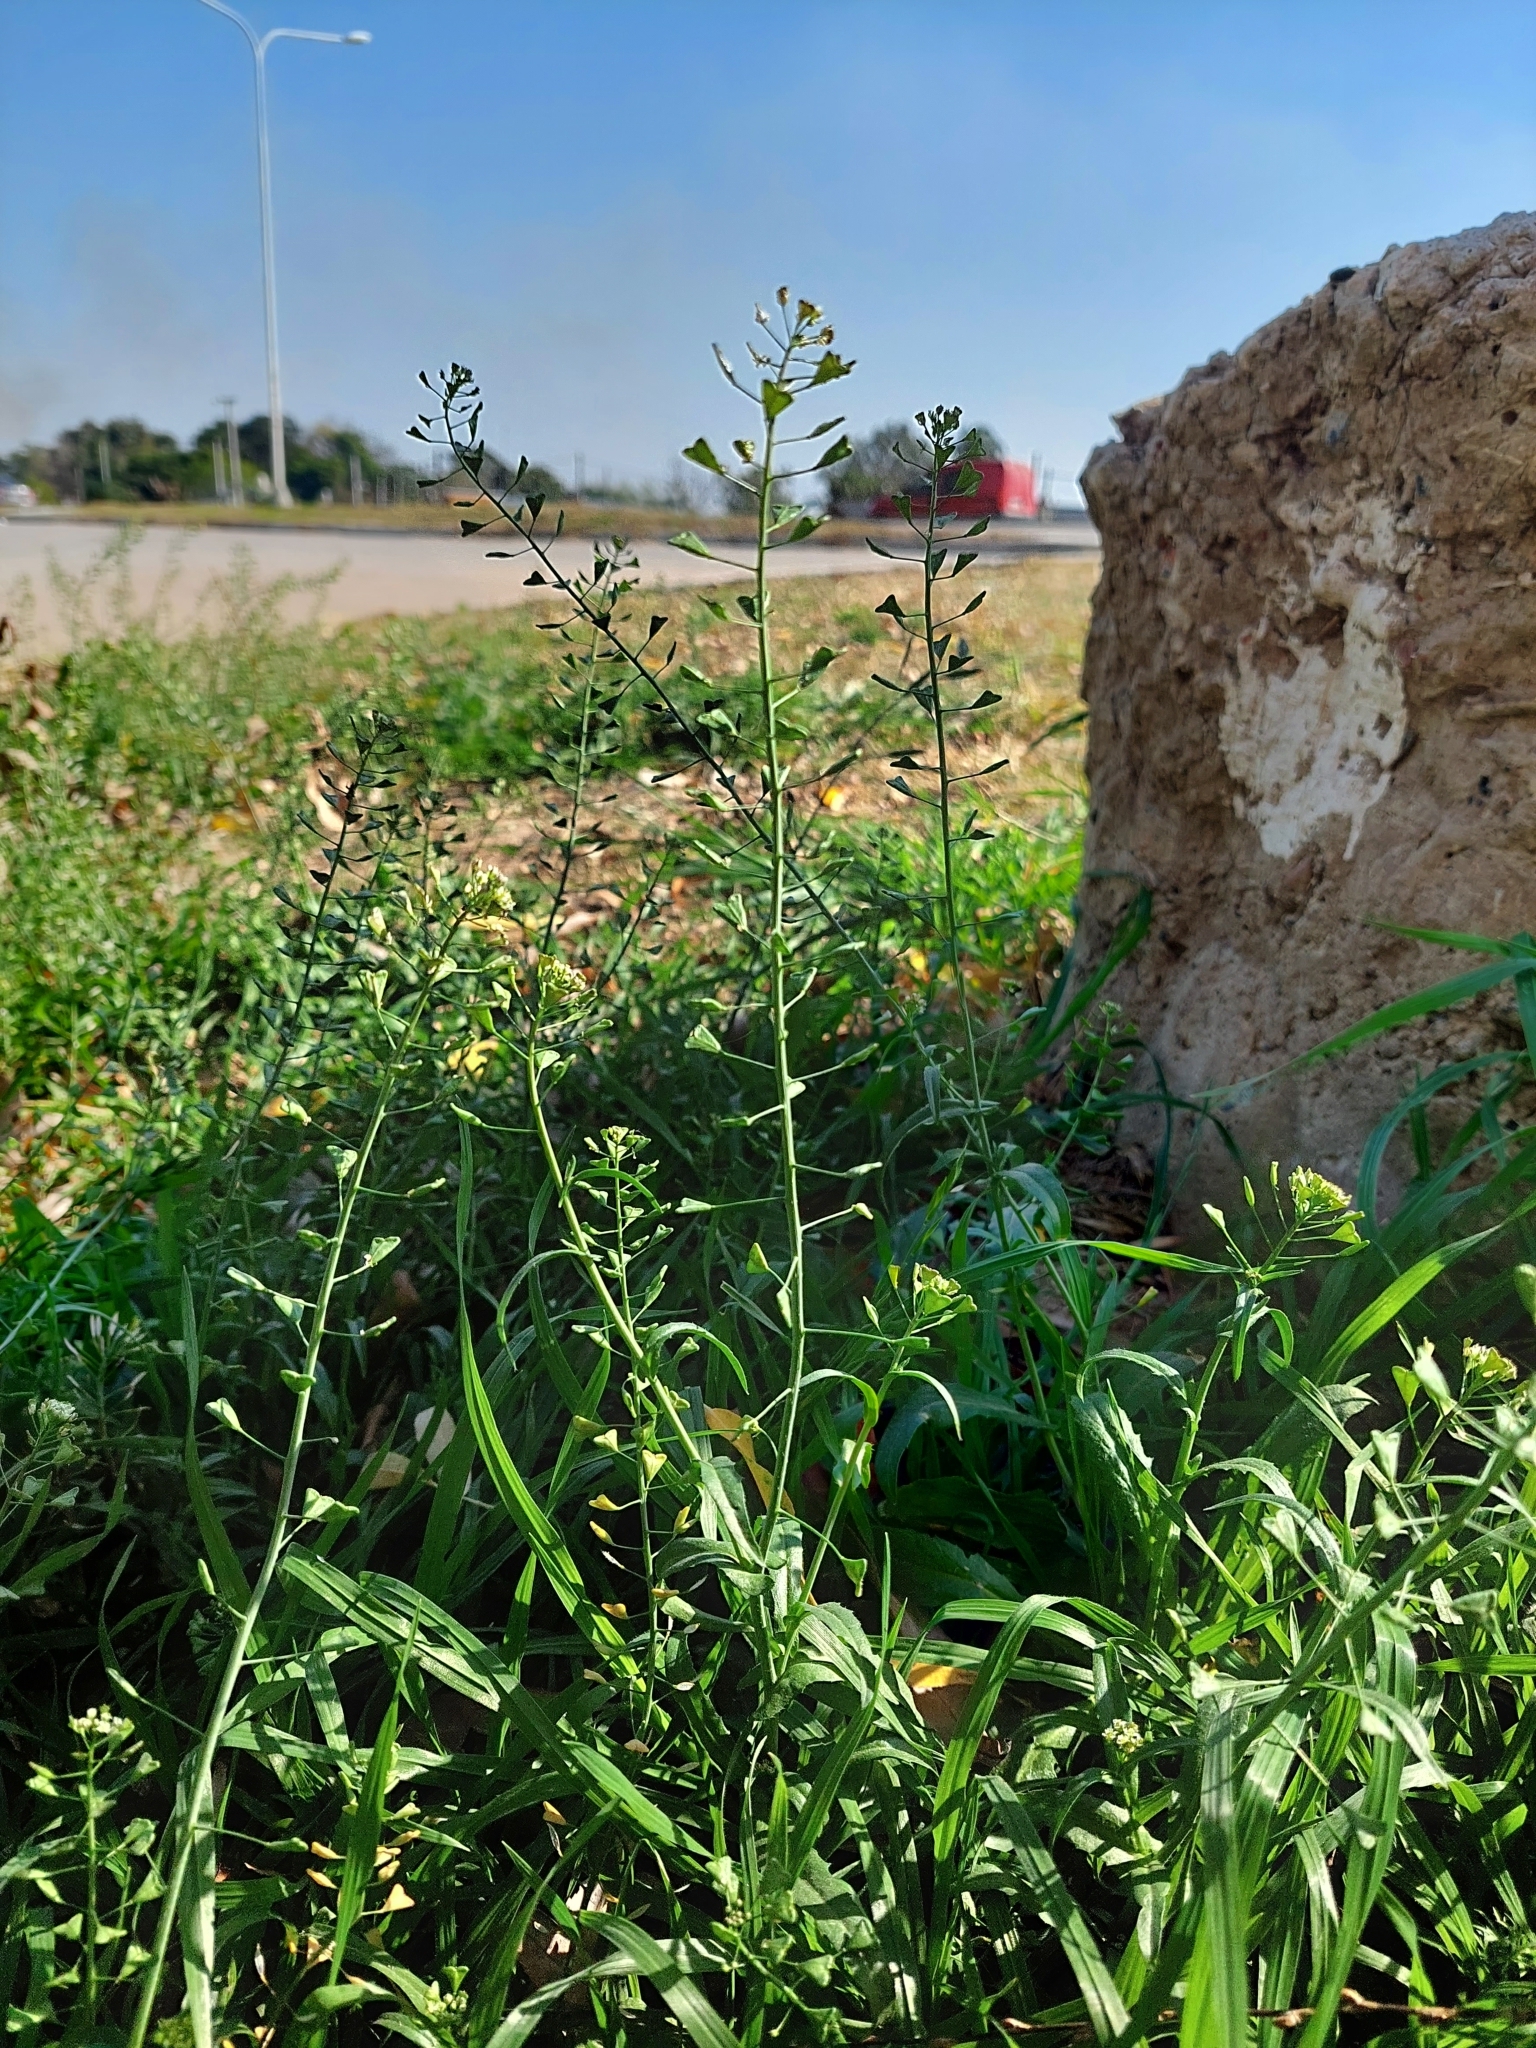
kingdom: Plantae
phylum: Tracheophyta
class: Magnoliopsida
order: Brassicales
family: Brassicaceae
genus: Capsella
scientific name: Capsella bursa-pastoris
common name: Shepherd's purse
